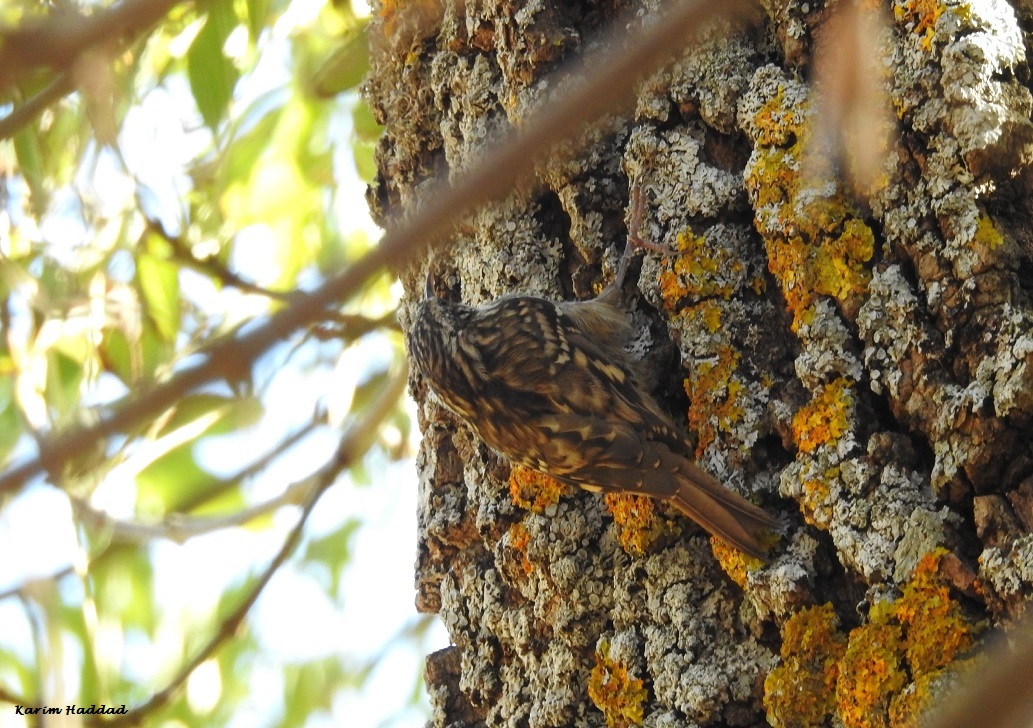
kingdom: Animalia
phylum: Chordata
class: Aves
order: Passeriformes
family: Certhiidae
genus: Certhia
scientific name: Certhia brachydactyla
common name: Short-toed treecreeper
